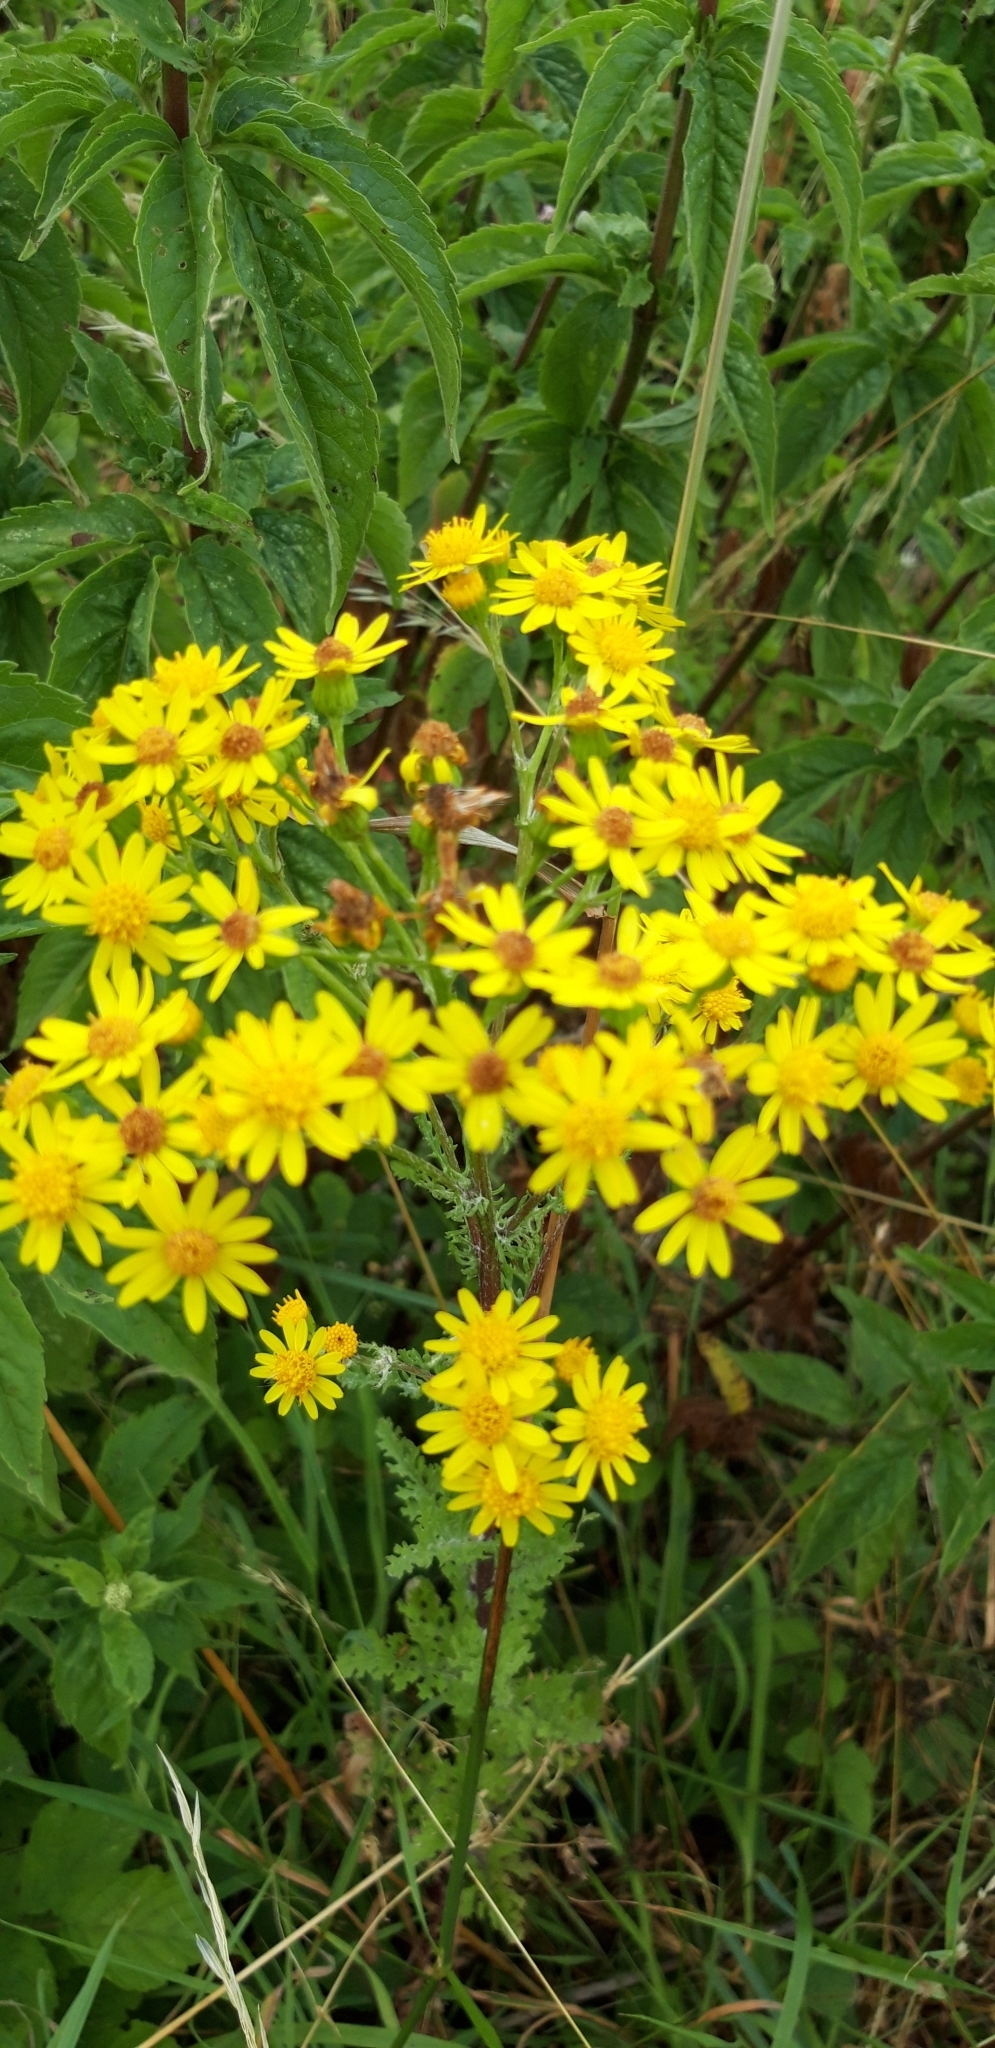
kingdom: Plantae
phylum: Tracheophyta
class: Magnoliopsida
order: Asterales
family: Asteraceae
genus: Jacobaea
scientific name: Jacobaea vulgaris
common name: Stinking willie
